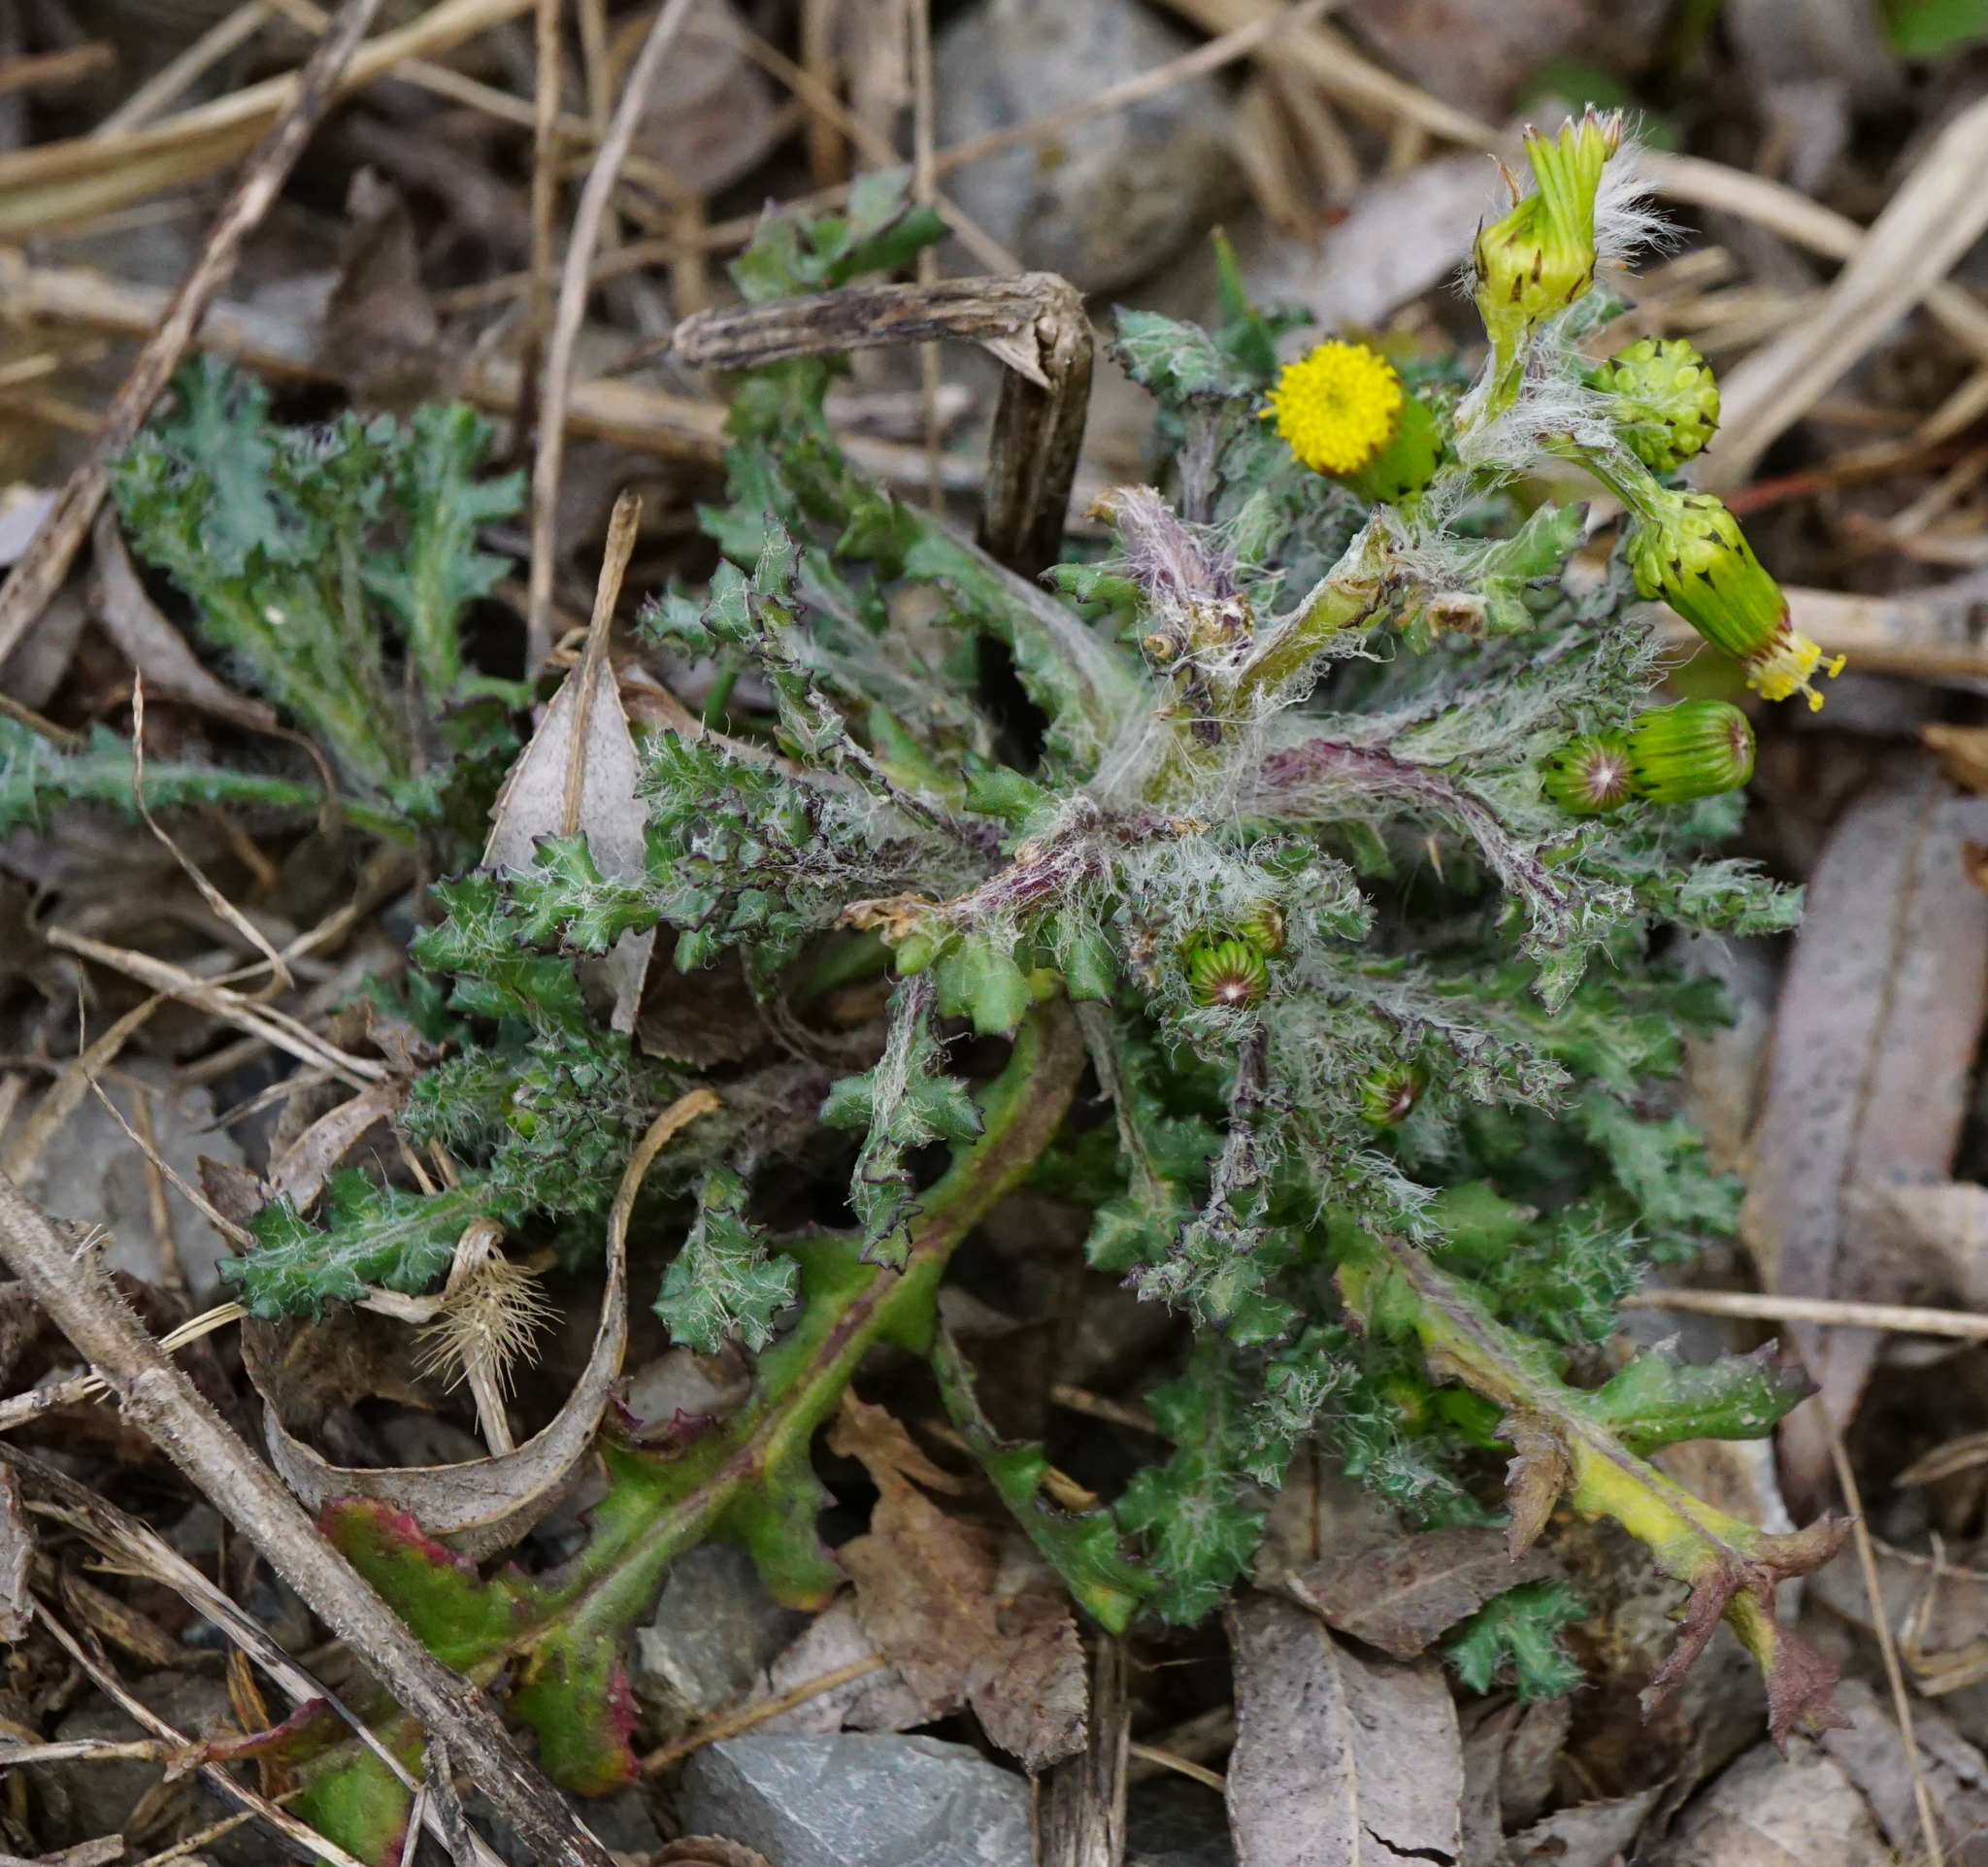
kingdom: Plantae
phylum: Tracheophyta
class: Magnoliopsida
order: Asterales
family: Asteraceae
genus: Senecio
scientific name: Senecio vulgaris
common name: Old-man-in-the-spring
